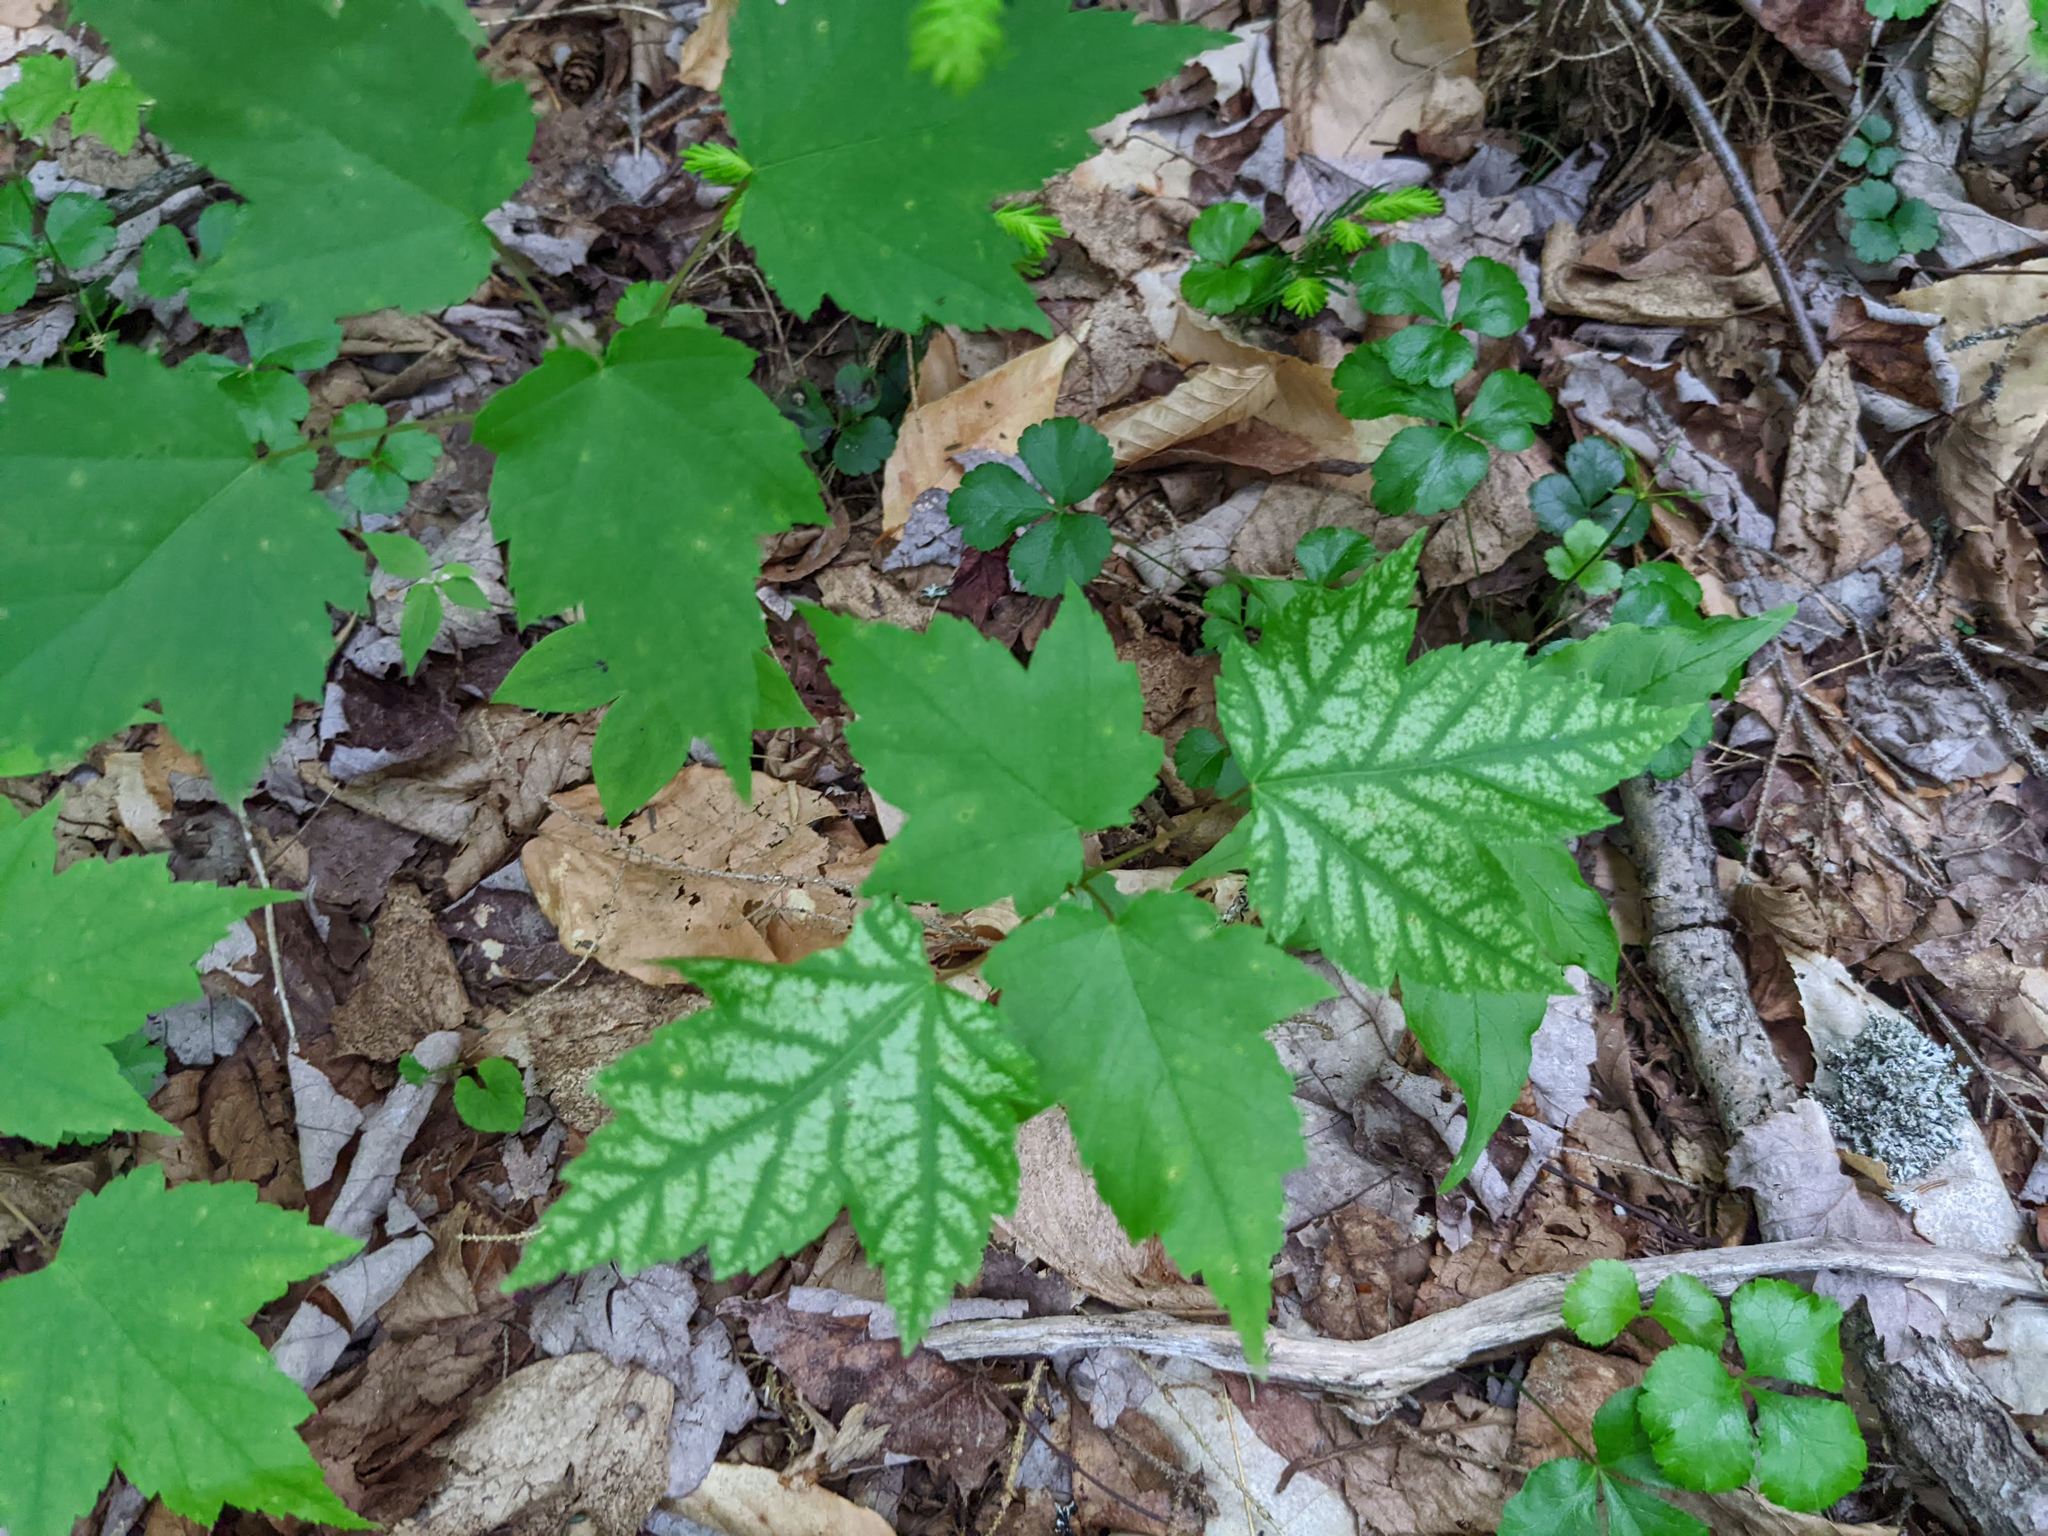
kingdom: Plantae
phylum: Tracheophyta
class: Magnoliopsida
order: Sapindales
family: Sapindaceae
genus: Acer
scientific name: Acer rubrum
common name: Red maple
